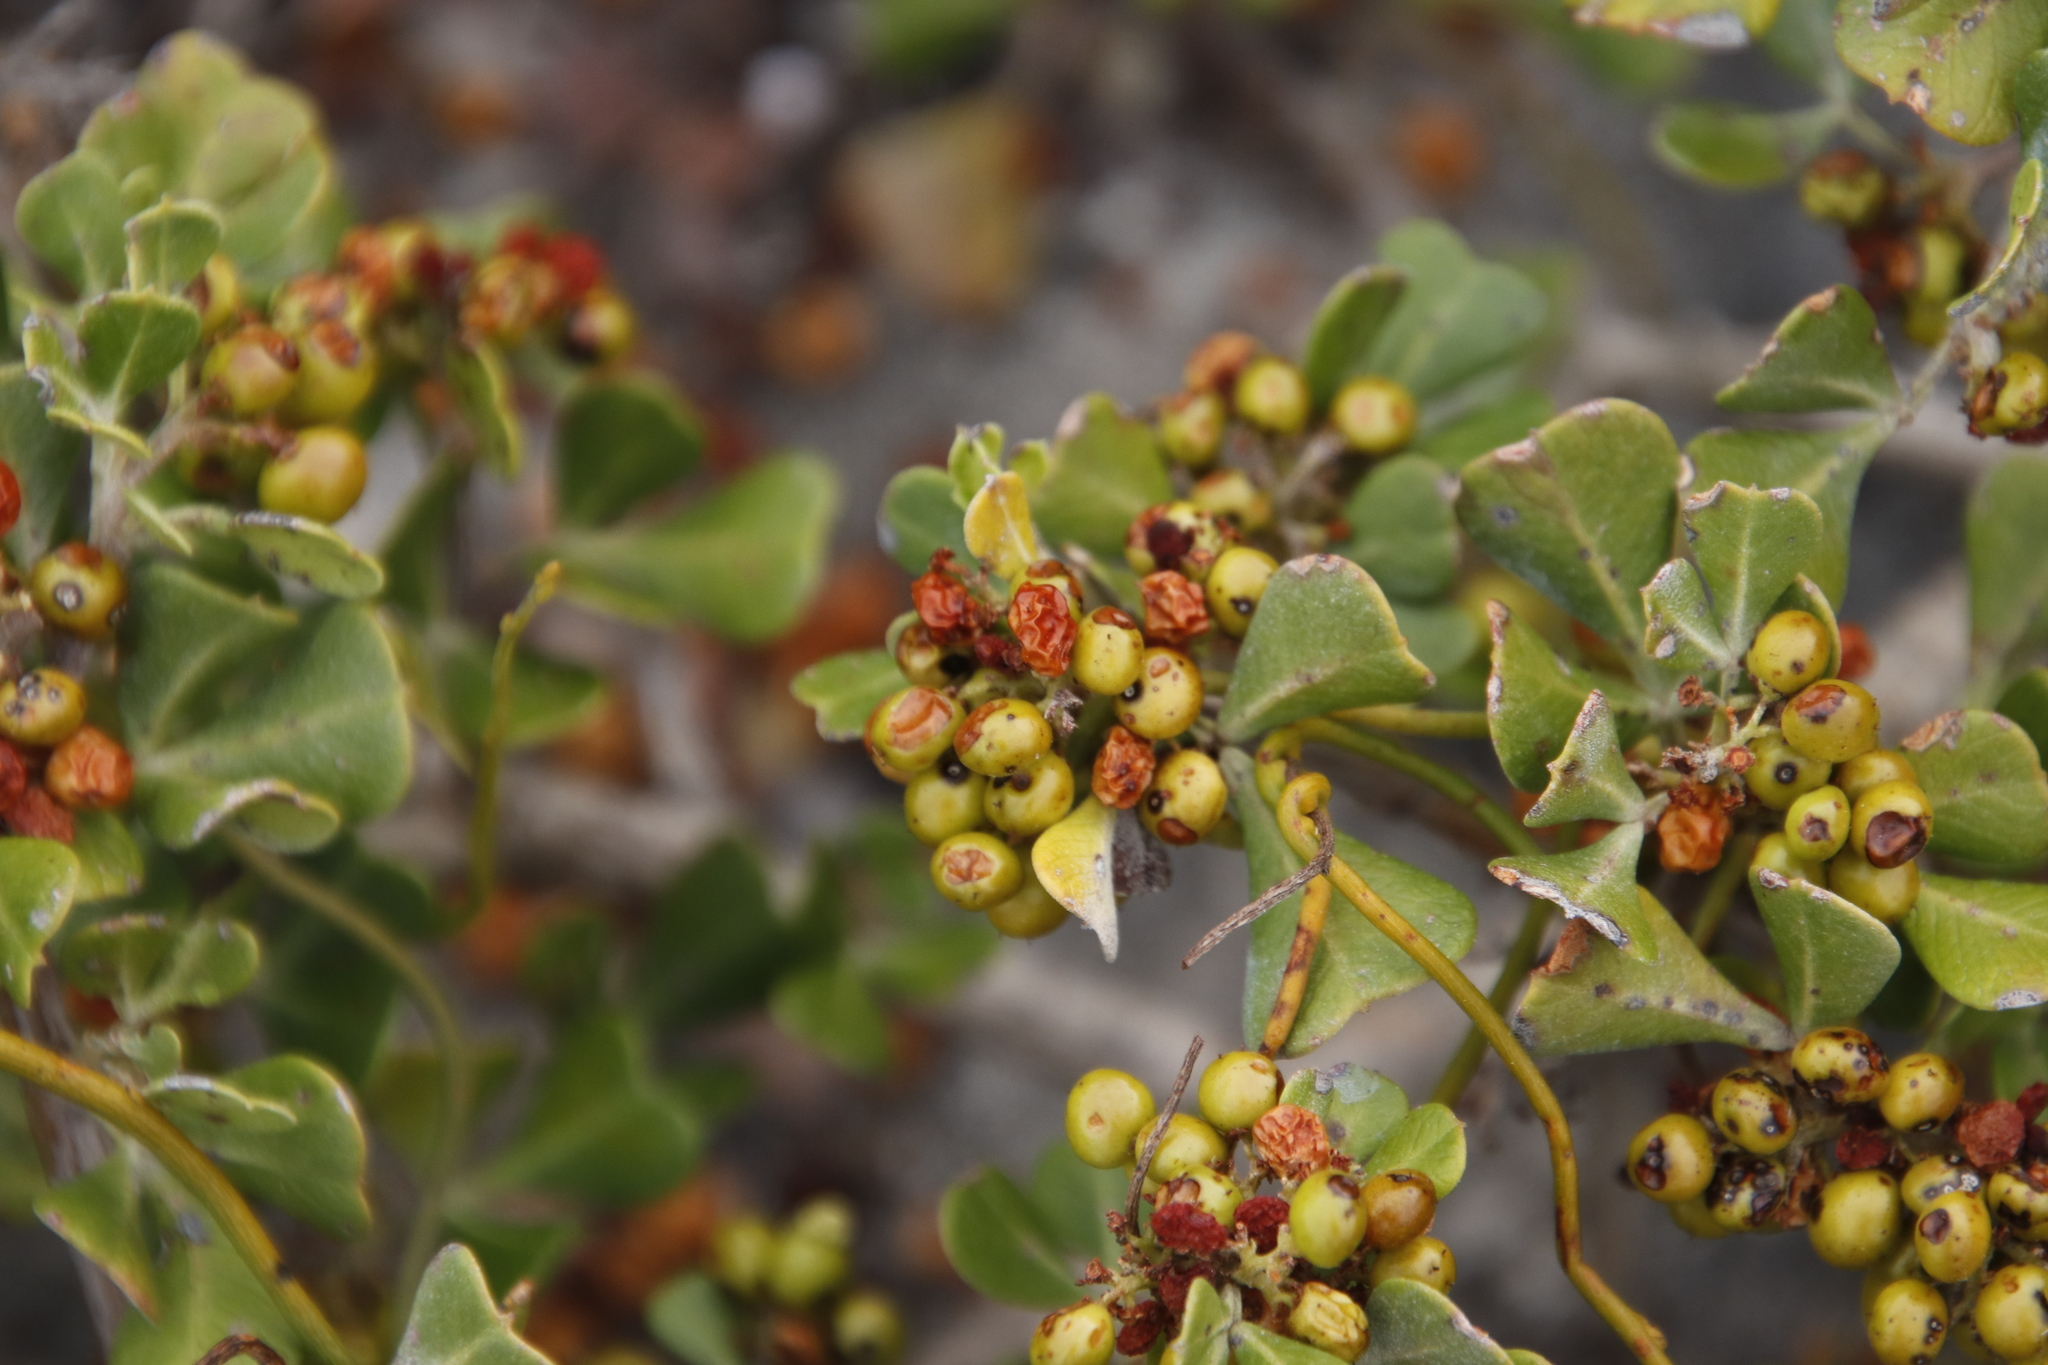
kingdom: Plantae
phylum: Tracheophyta
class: Magnoliopsida
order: Sapindales
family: Anacardiaceae
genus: Searsia
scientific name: Searsia glauca
